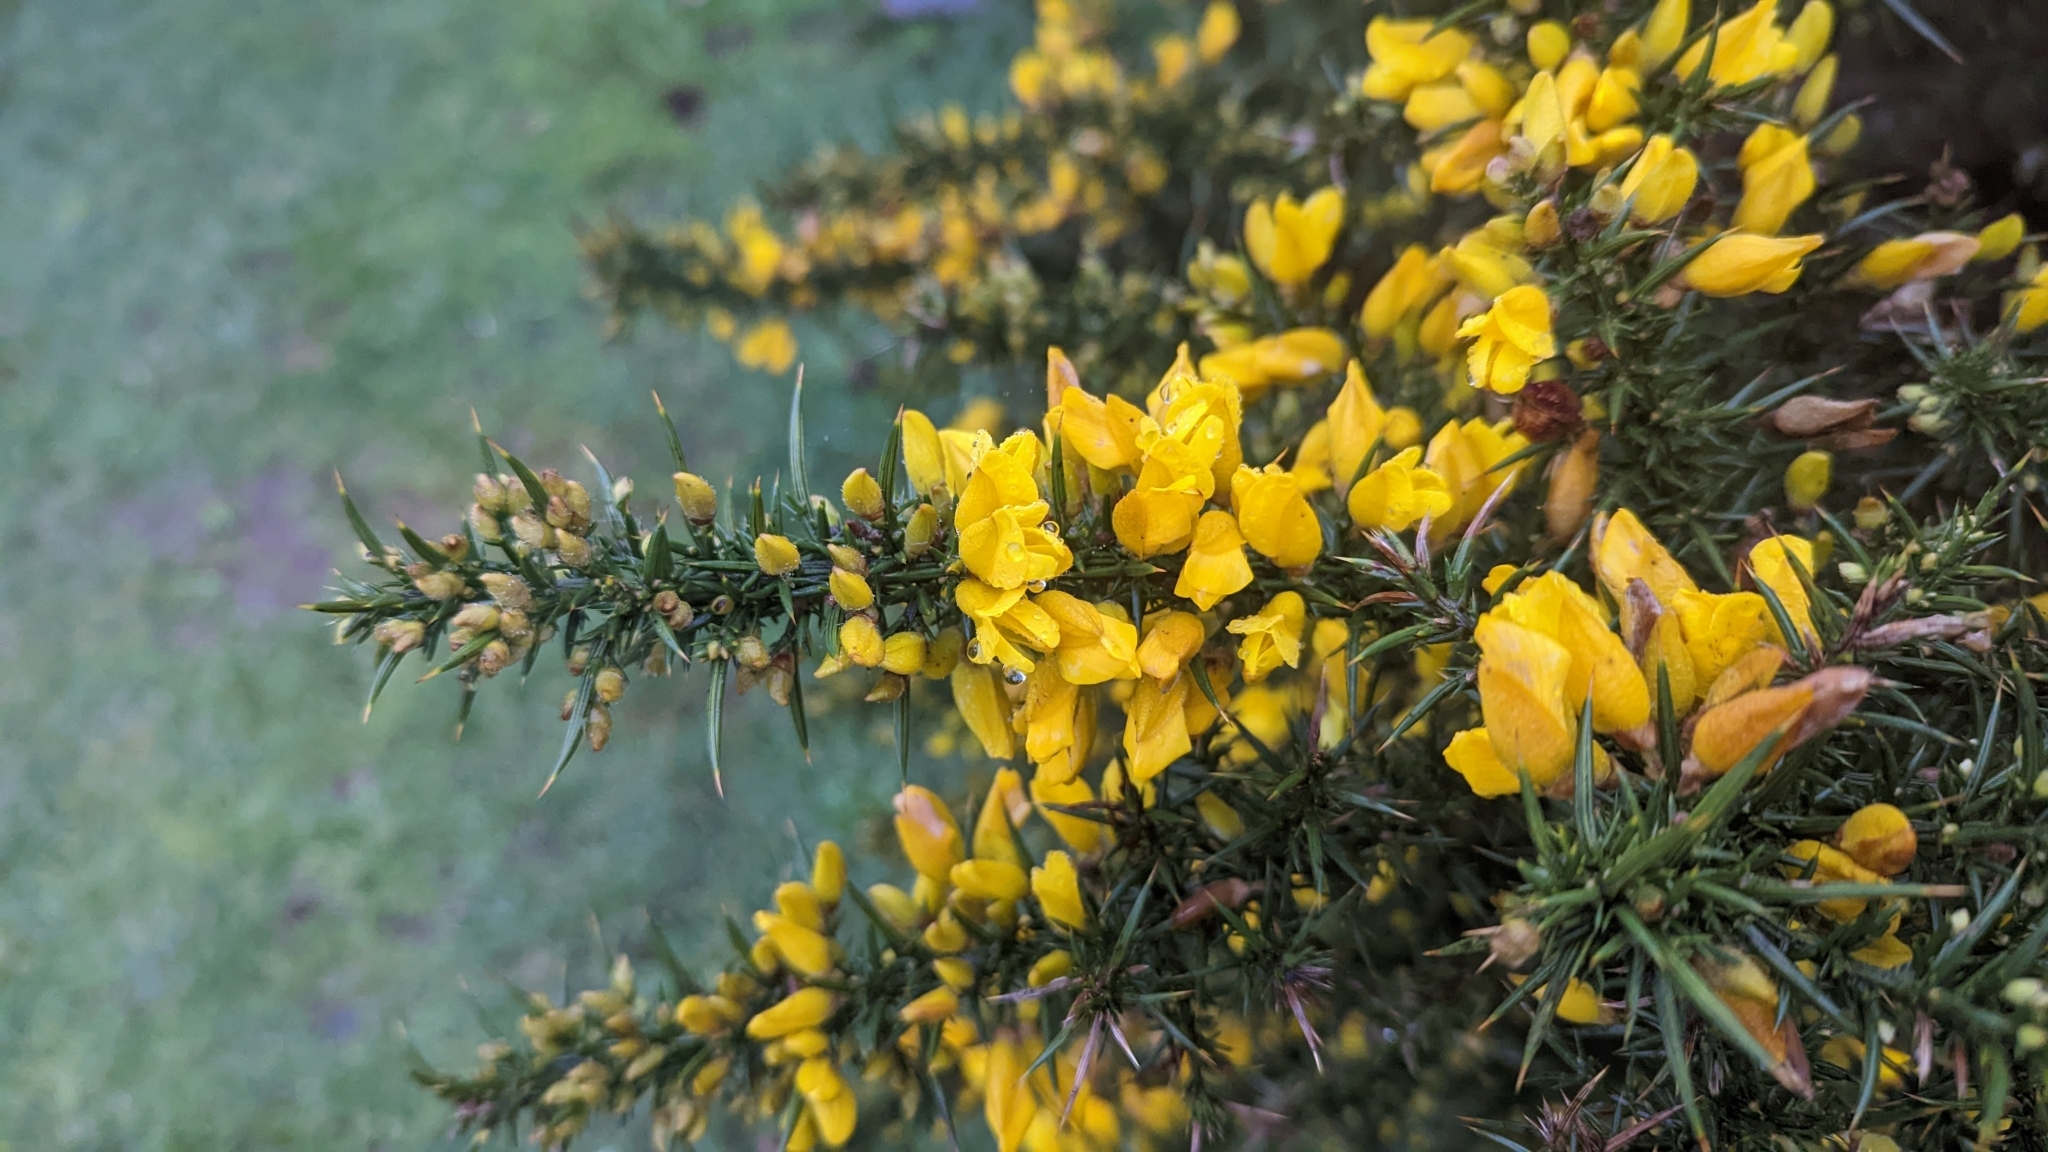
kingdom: Plantae
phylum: Tracheophyta
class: Magnoliopsida
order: Fabales
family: Fabaceae
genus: Ulex
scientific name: Ulex europaeus
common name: Common gorse
